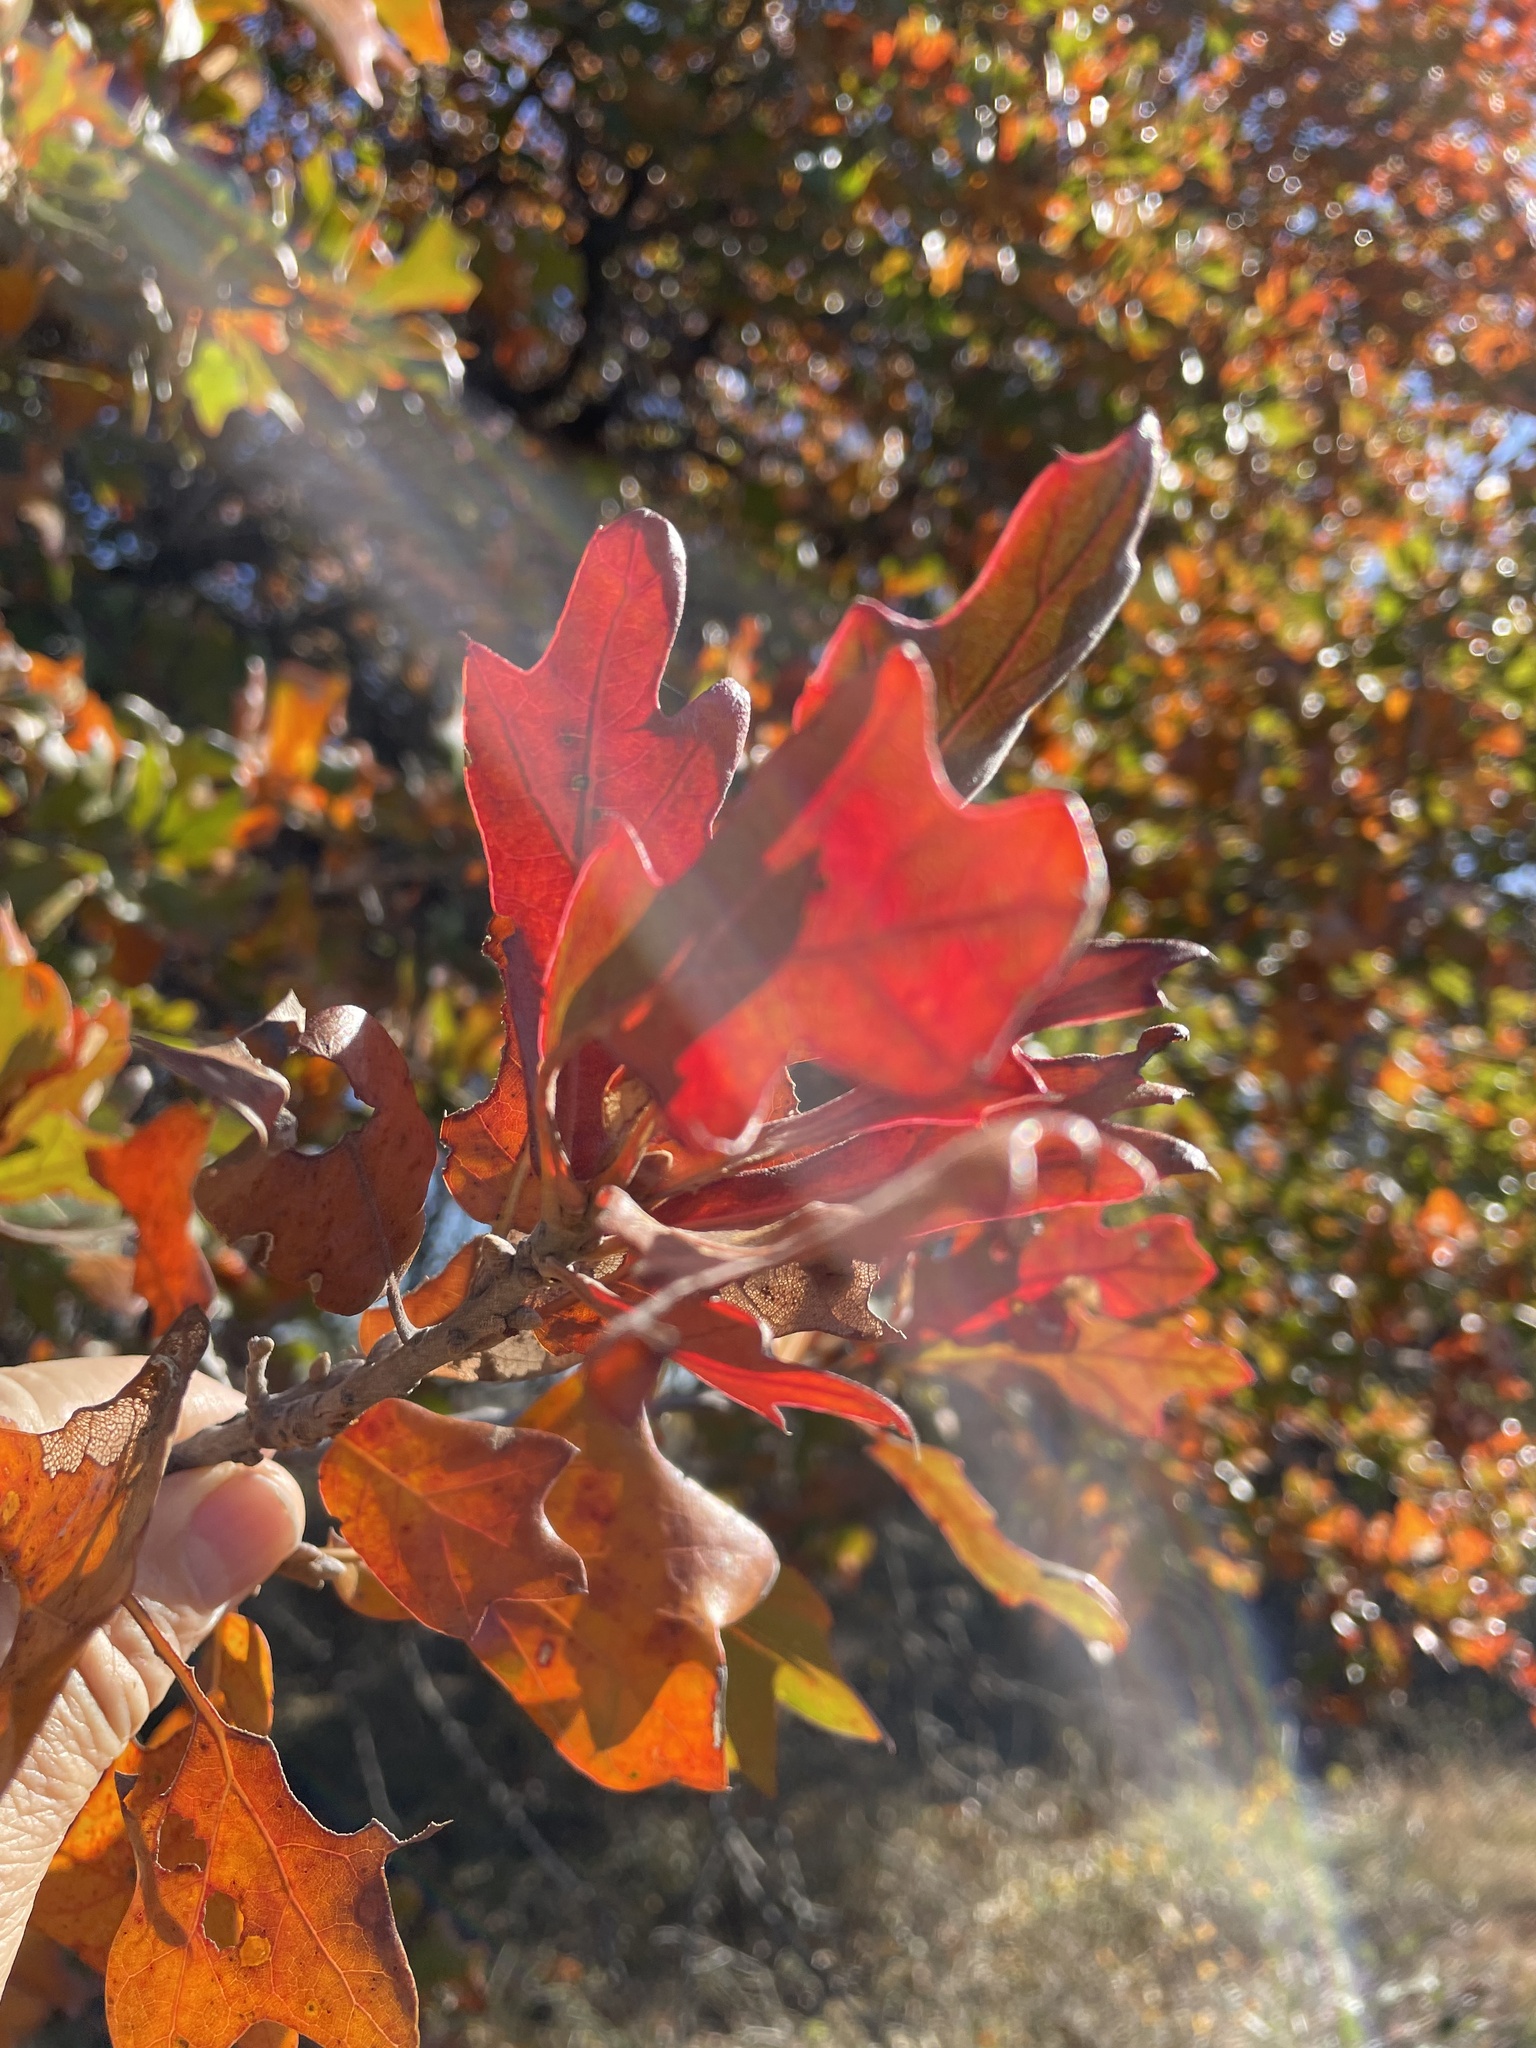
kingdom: Plantae
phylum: Tracheophyta
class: Magnoliopsida
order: Fagales
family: Fagaceae
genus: Quercus
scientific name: Quercus marilandica
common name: Blackjack oak
